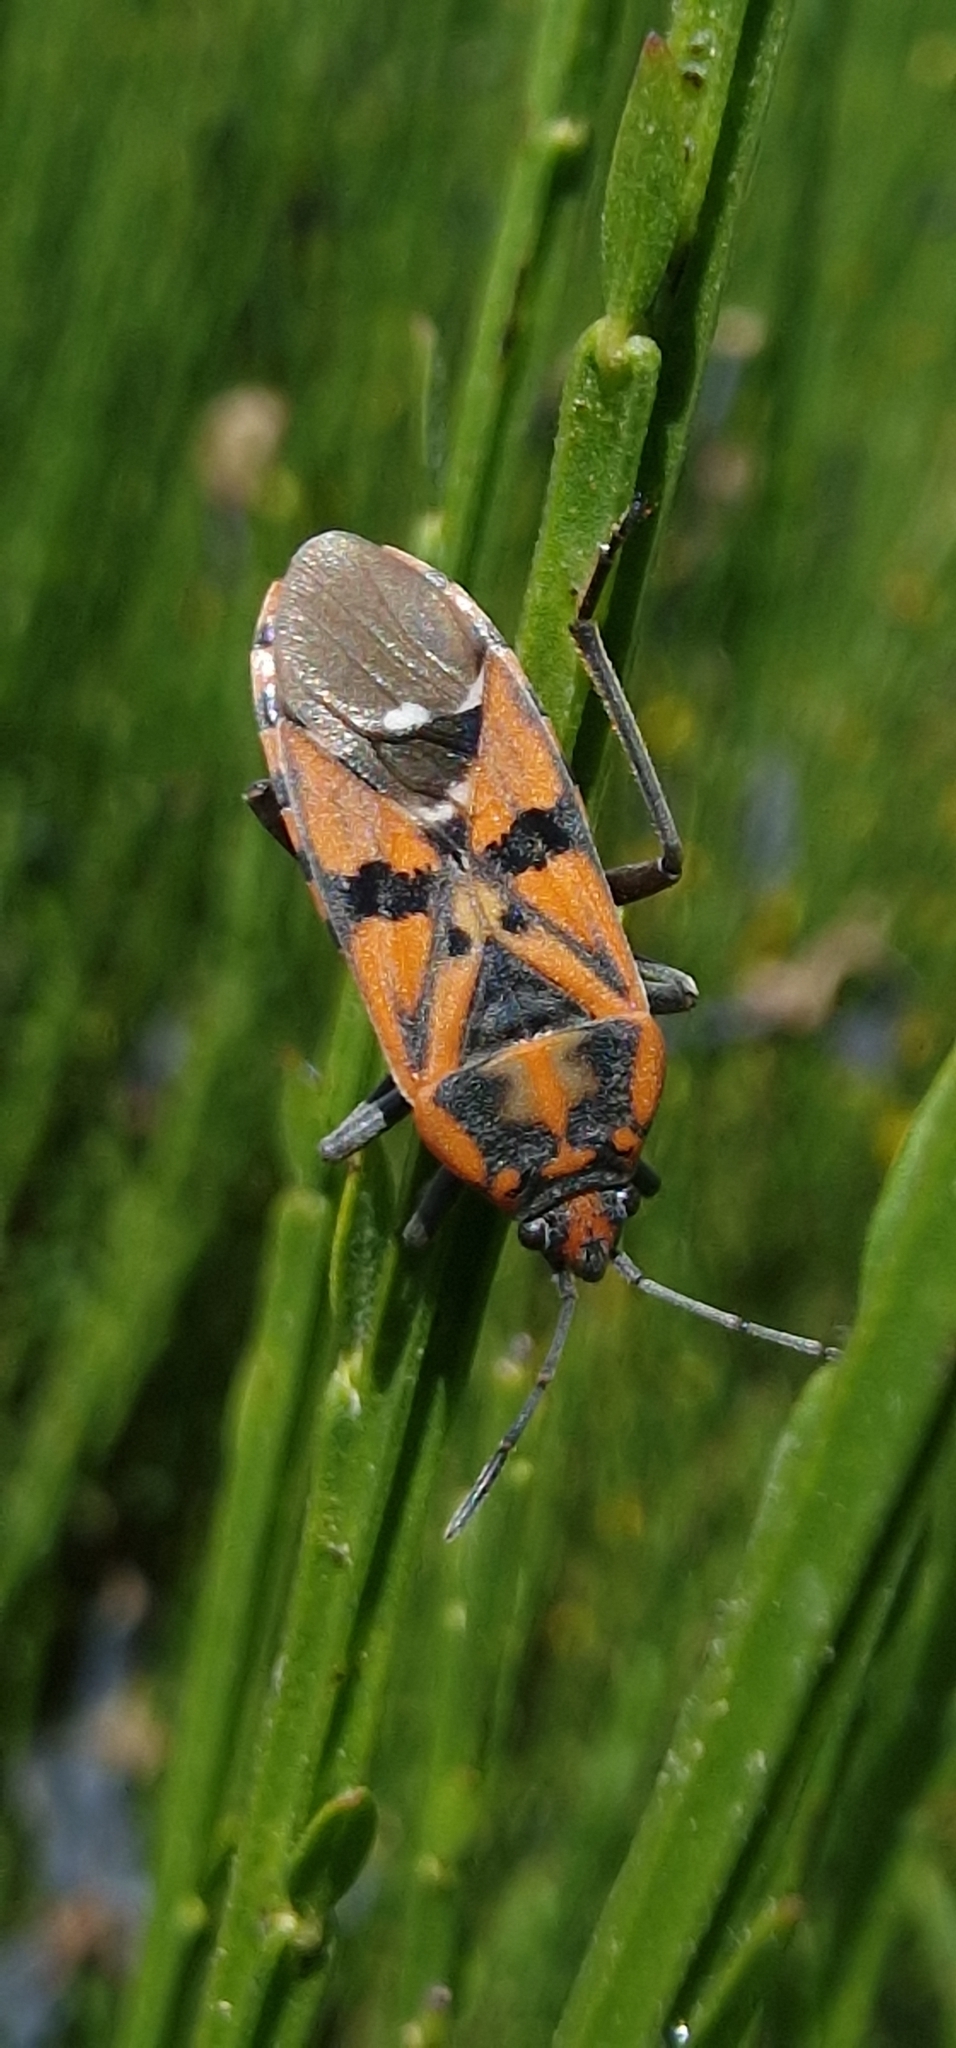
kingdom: Animalia
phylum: Arthropoda
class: Insecta
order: Hemiptera
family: Lygaeidae
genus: Spilostethus
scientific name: Spilostethus pandurus
